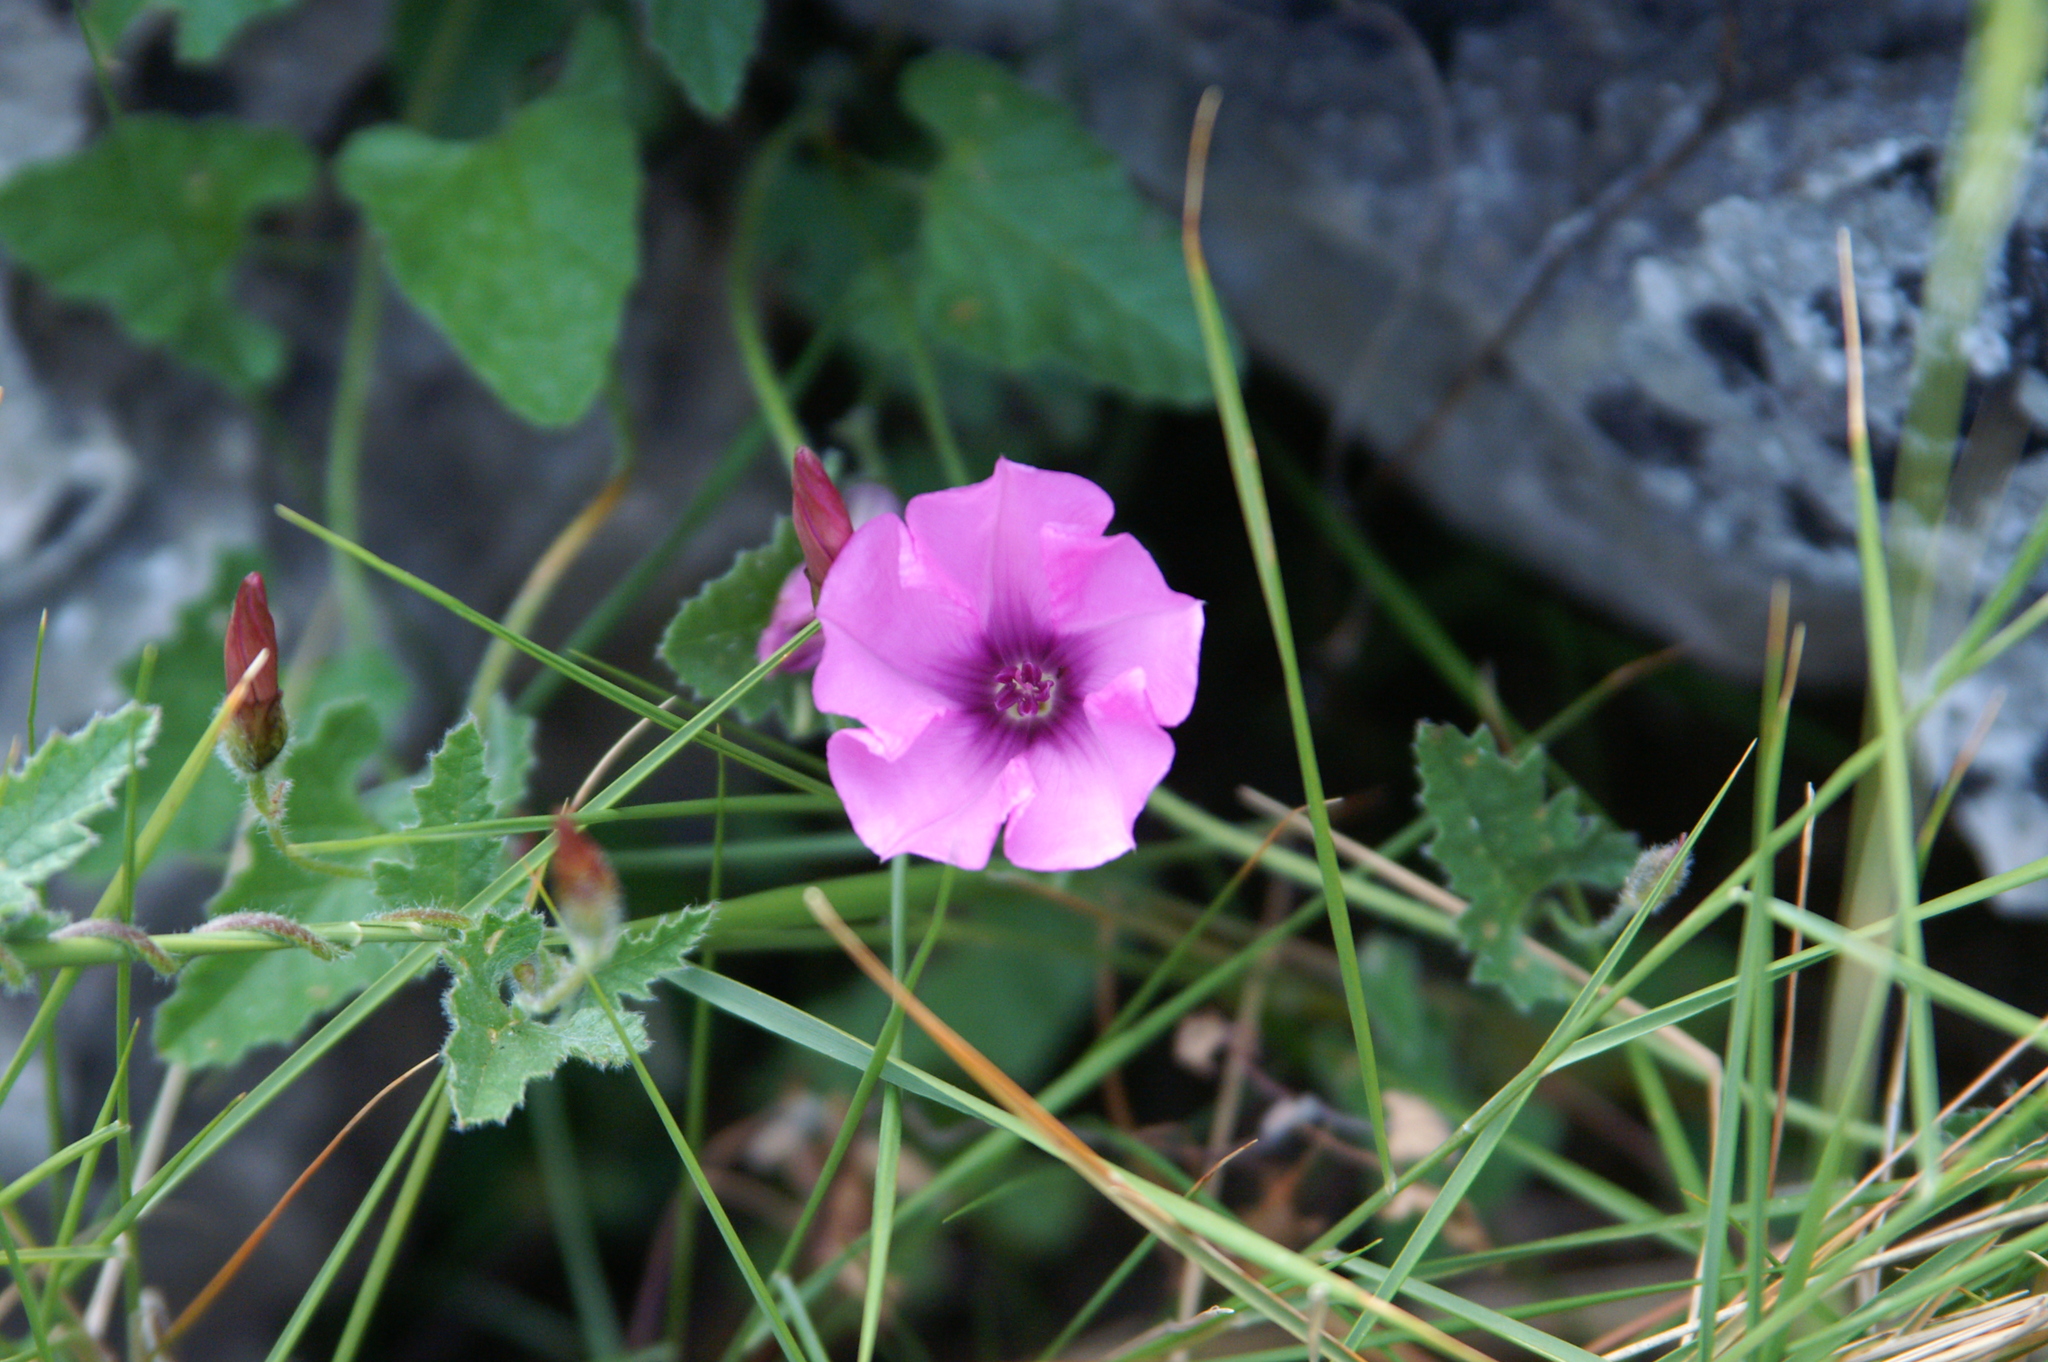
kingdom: Plantae
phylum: Tracheophyta
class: Magnoliopsida
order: Solanales
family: Convolvulaceae
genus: Convolvulus
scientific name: Convolvulus althaeoides
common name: Mallow bindweed
